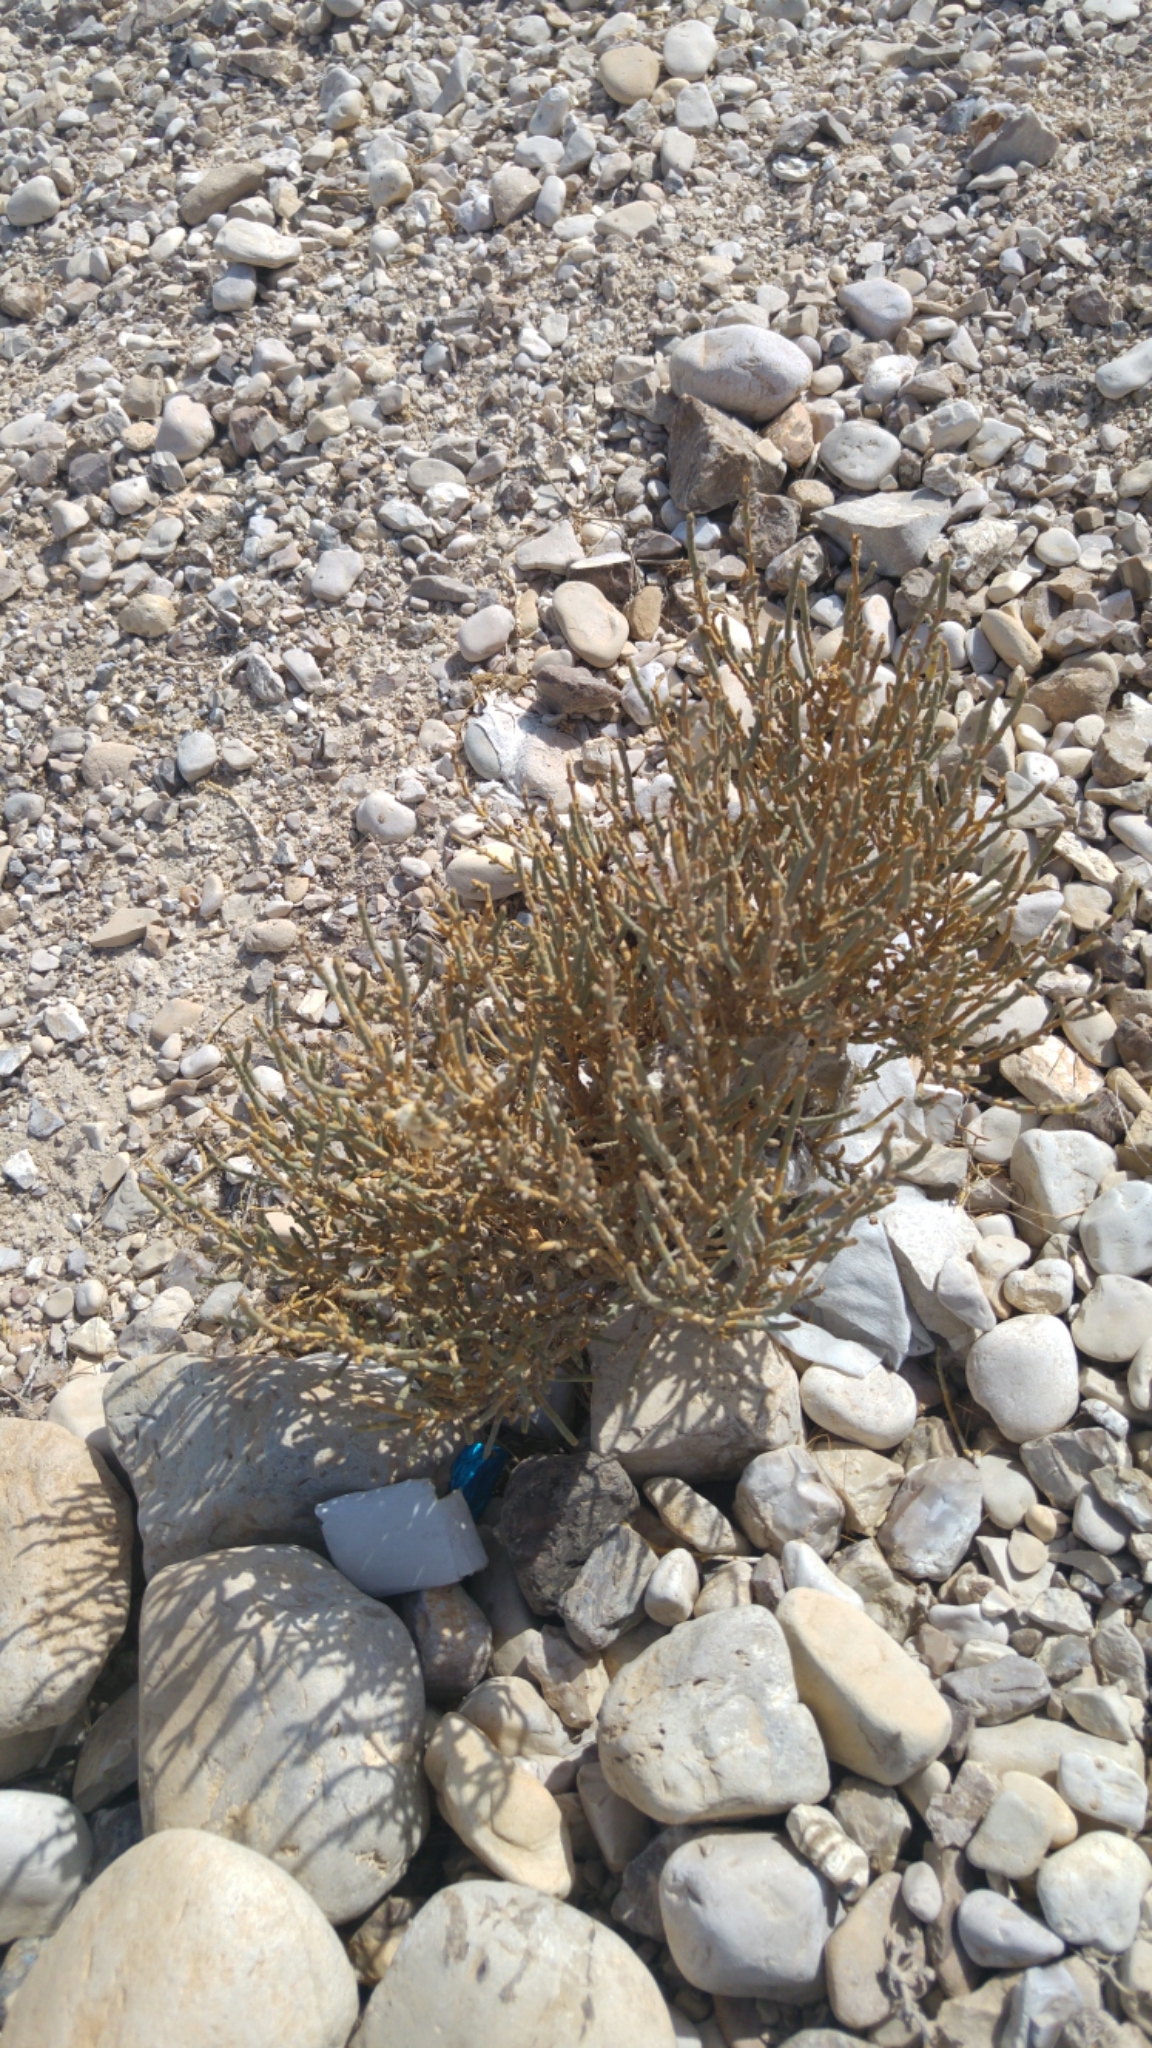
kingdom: Plantae
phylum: Tracheophyta
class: Magnoliopsida
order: Caryophyllales
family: Amaranthaceae
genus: Anabasis
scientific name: Anabasis articulata
